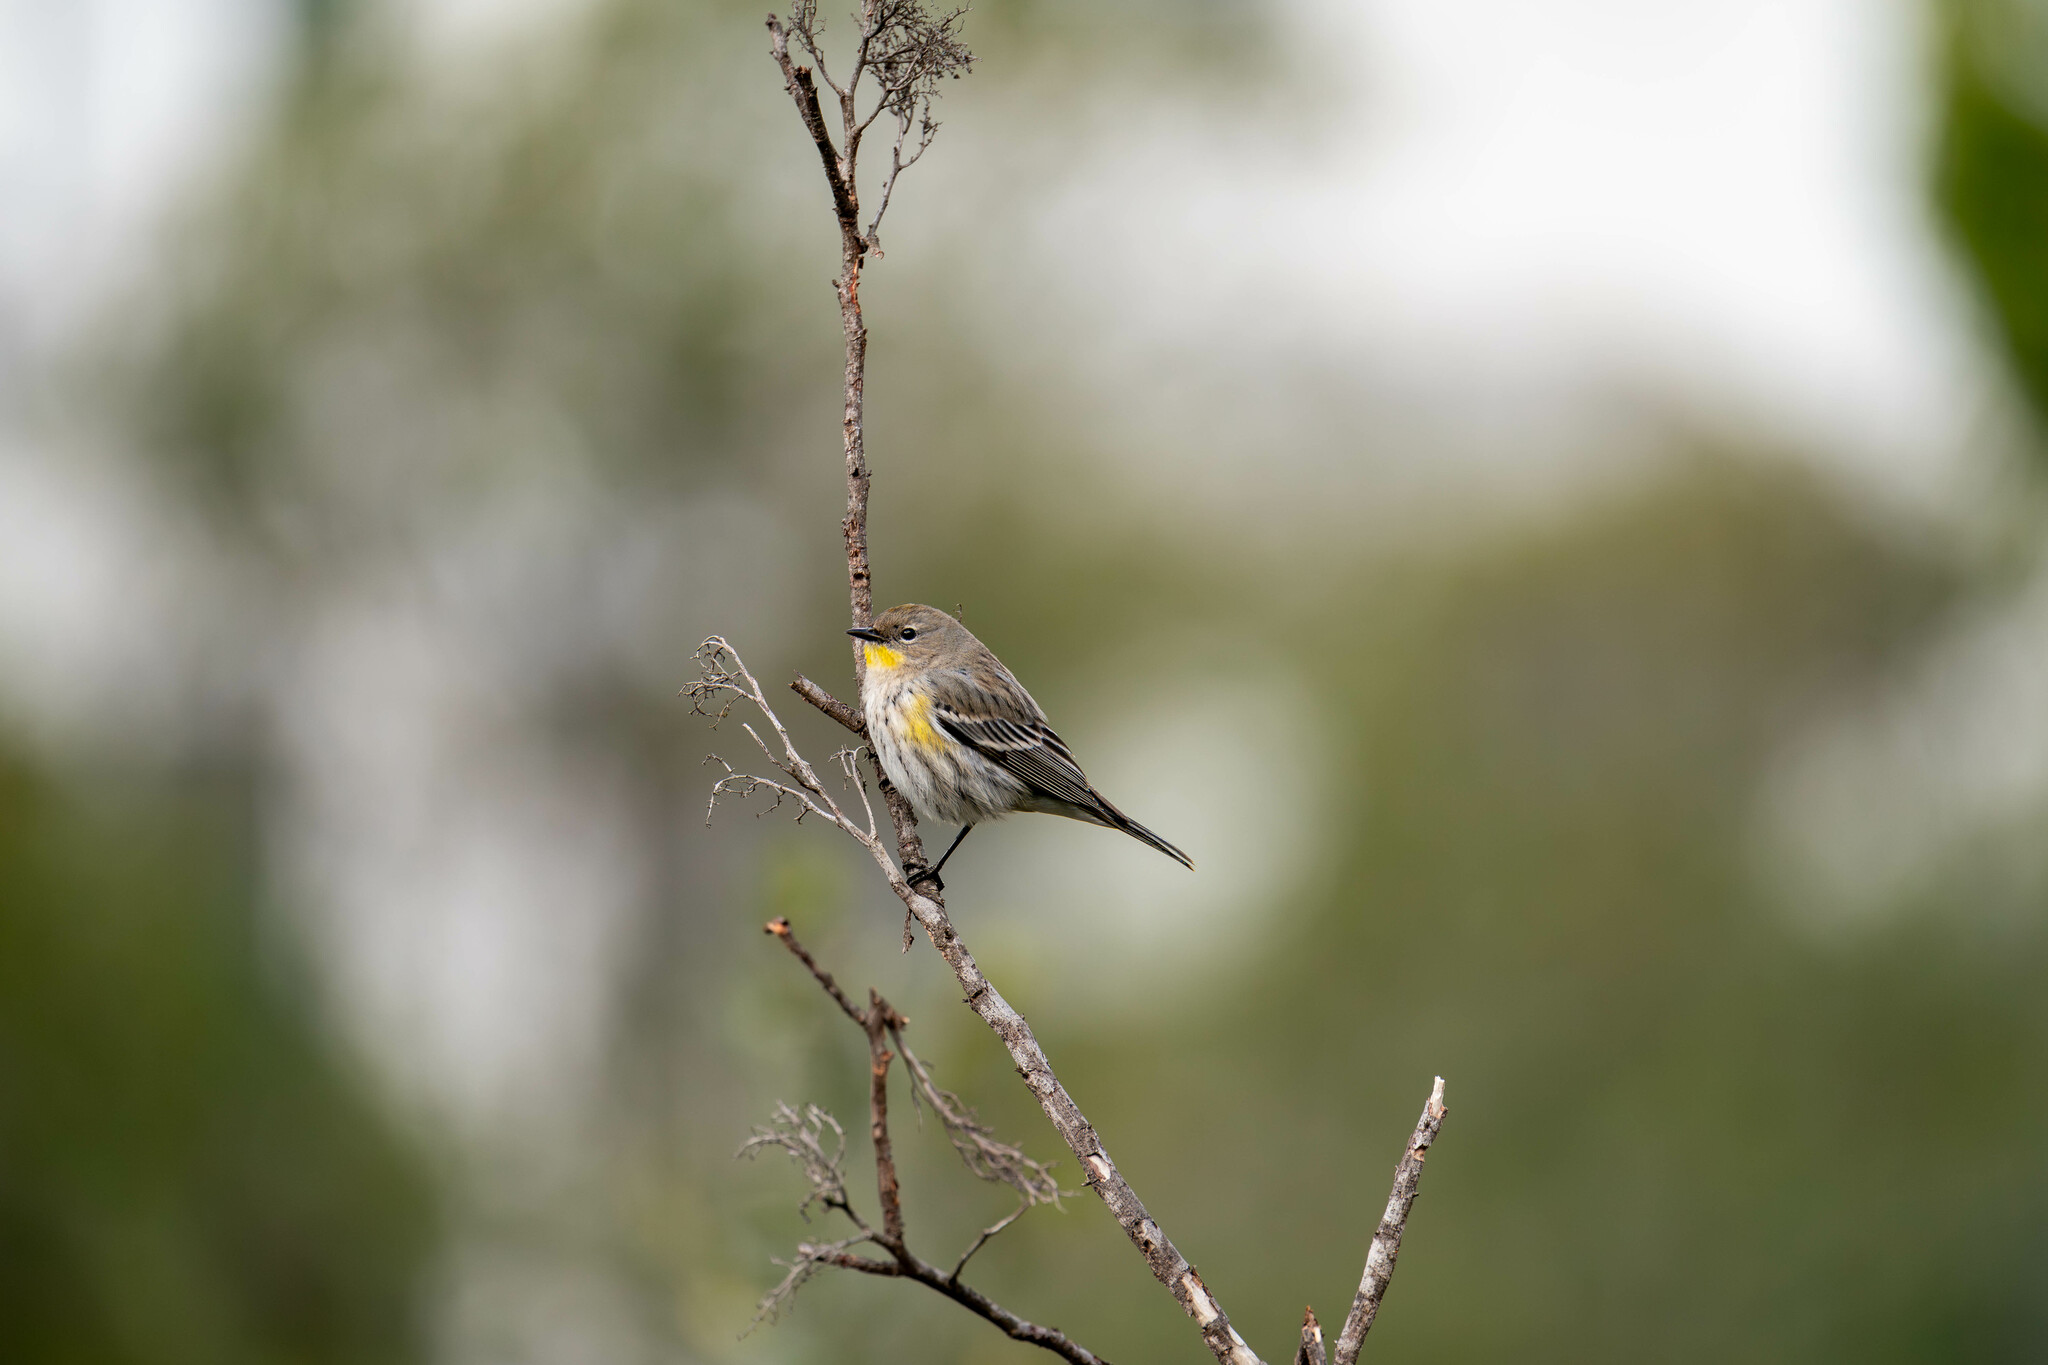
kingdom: Animalia
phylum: Chordata
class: Aves
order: Passeriformes
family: Parulidae
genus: Setophaga
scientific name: Setophaga auduboni
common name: Audubon's warbler
